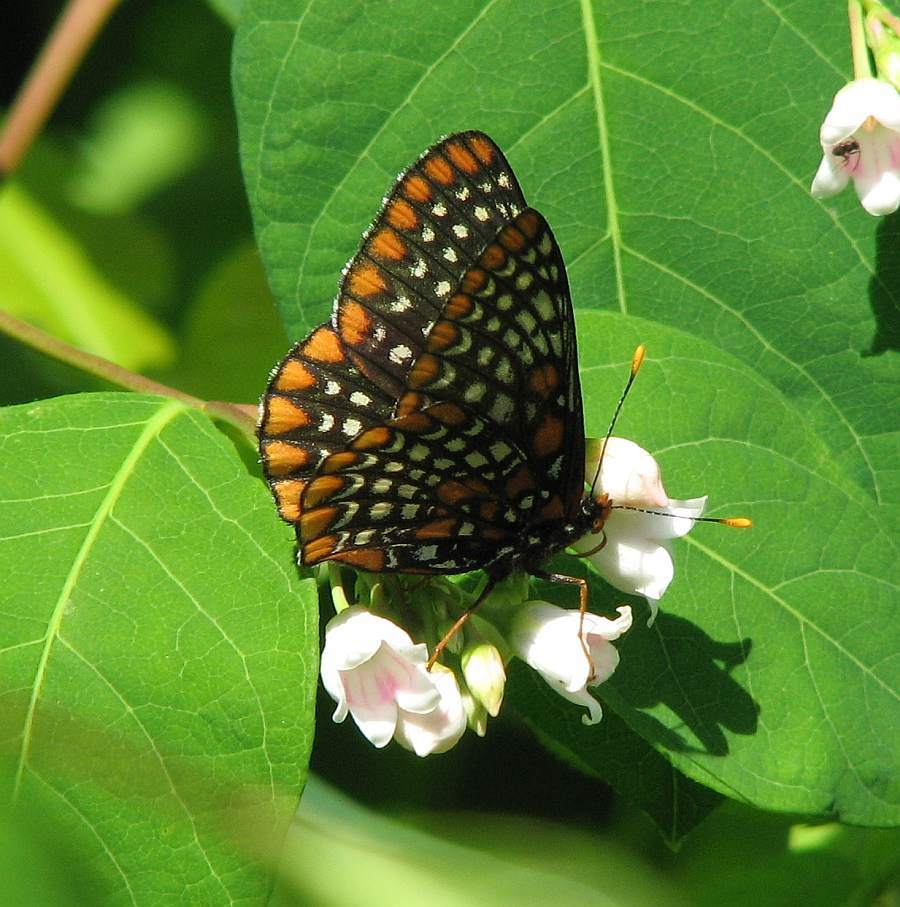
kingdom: Animalia
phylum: Arthropoda
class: Insecta
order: Lepidoptera
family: Nymphalidae
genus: Euphydryas
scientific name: Euphydryas phaeton
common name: Baltimore checkerspot
